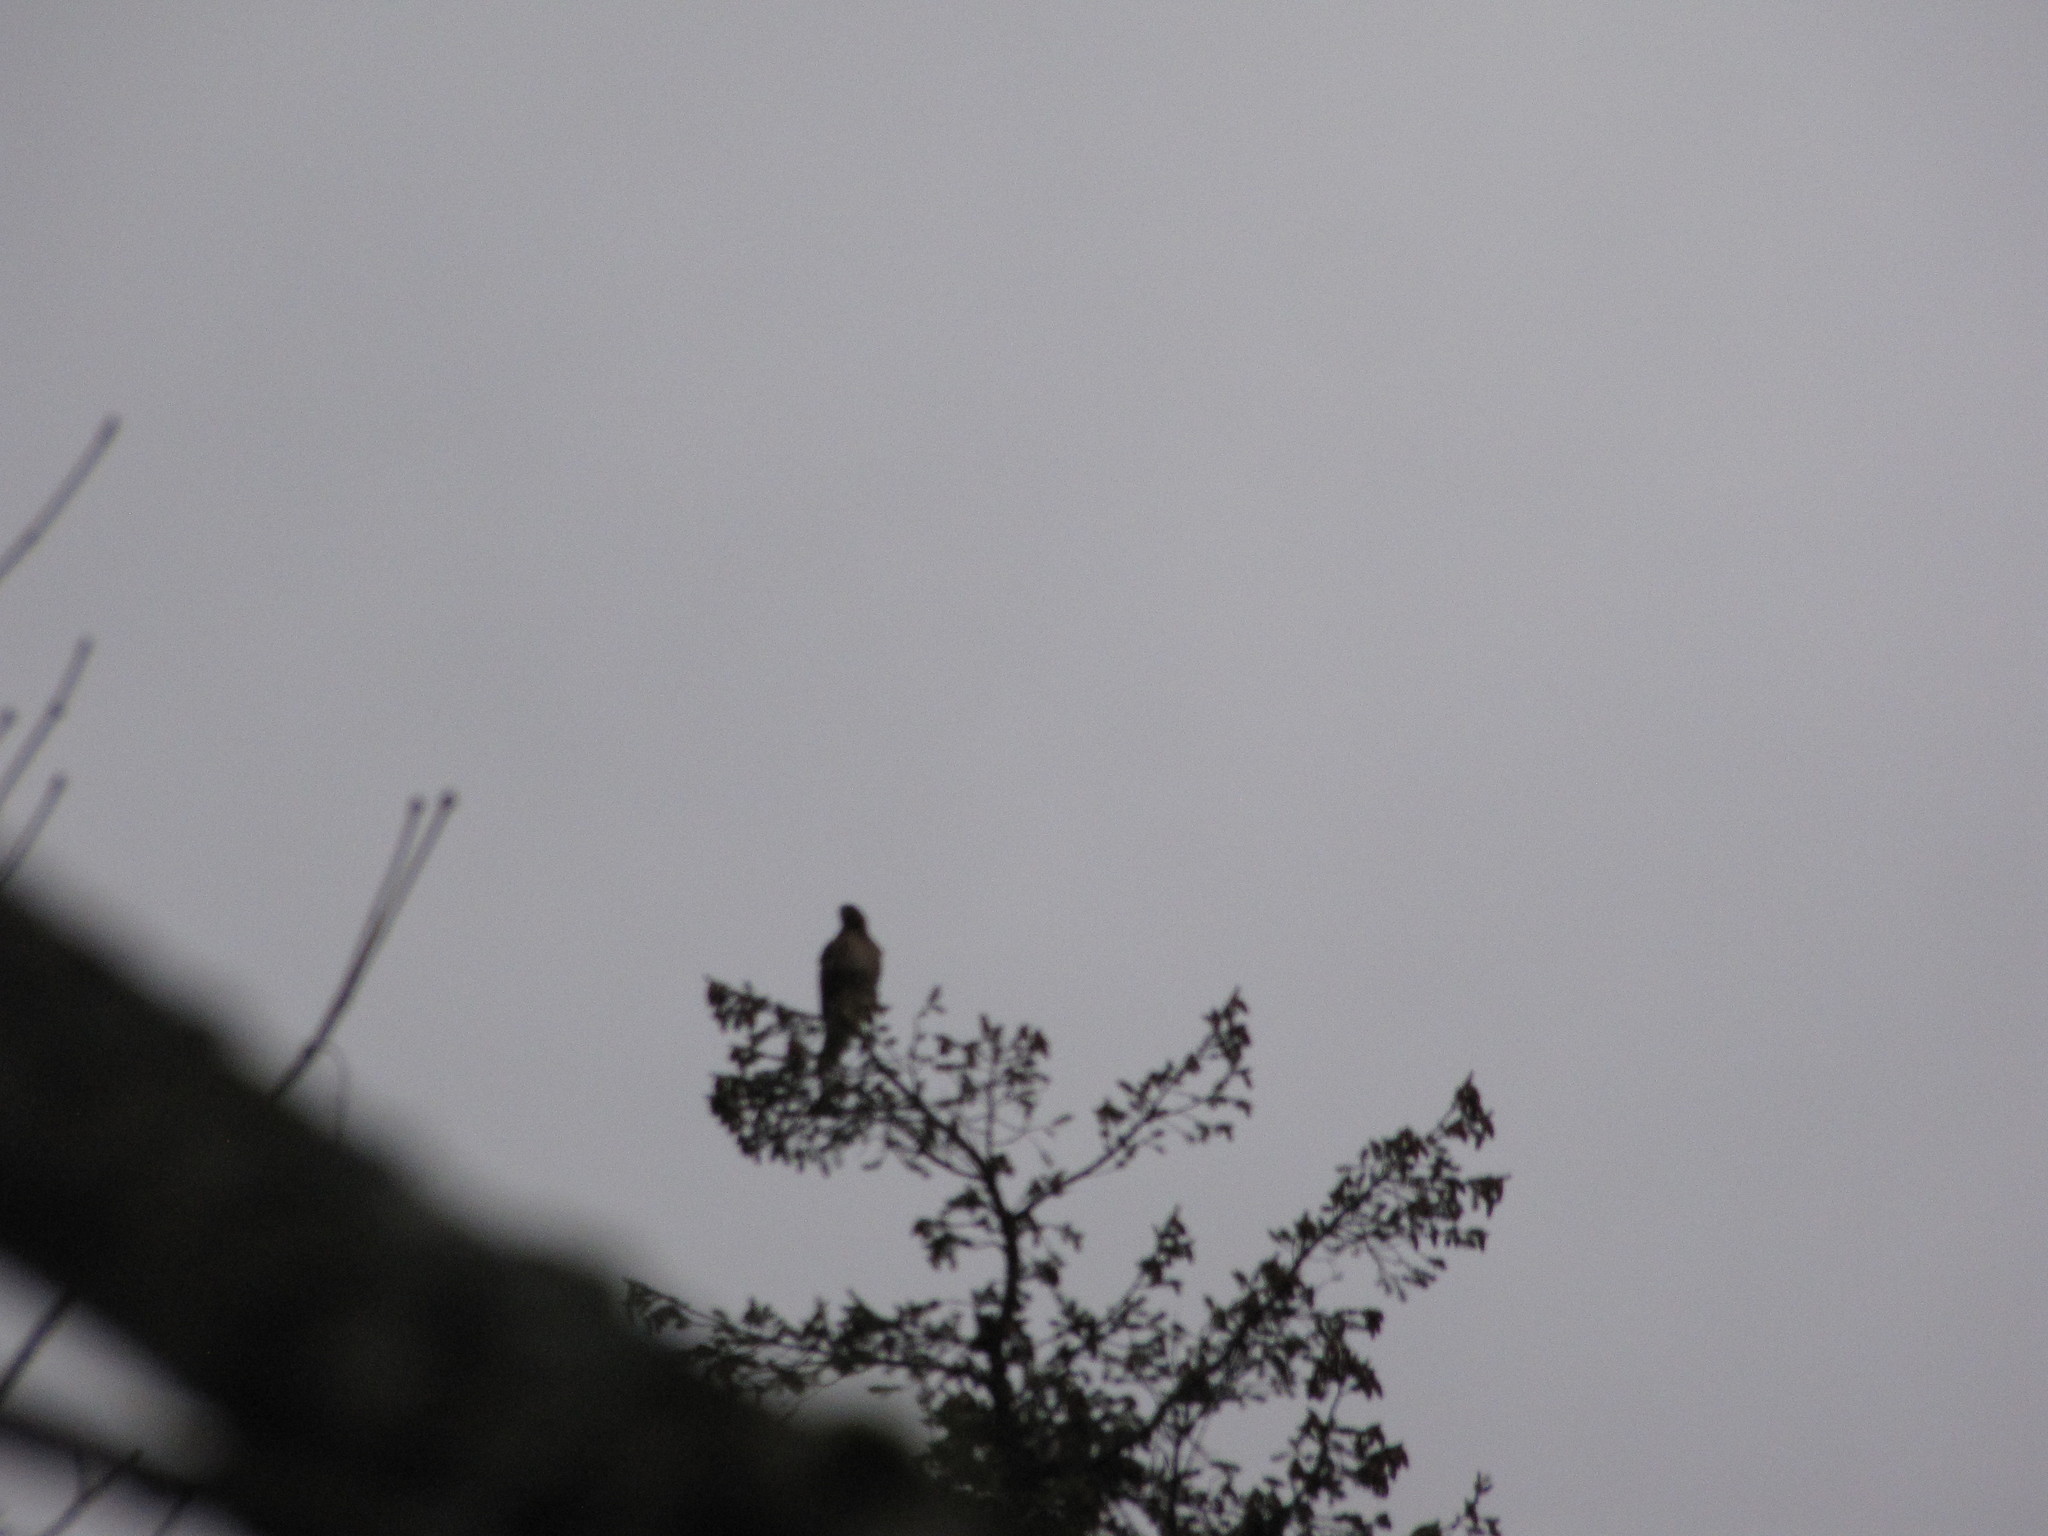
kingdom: Animalia
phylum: Chordata
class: Aves
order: Accipitriformes
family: Accipitridae
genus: Buteo
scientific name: Buteo jamaicensis
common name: Red-tailed hawk
